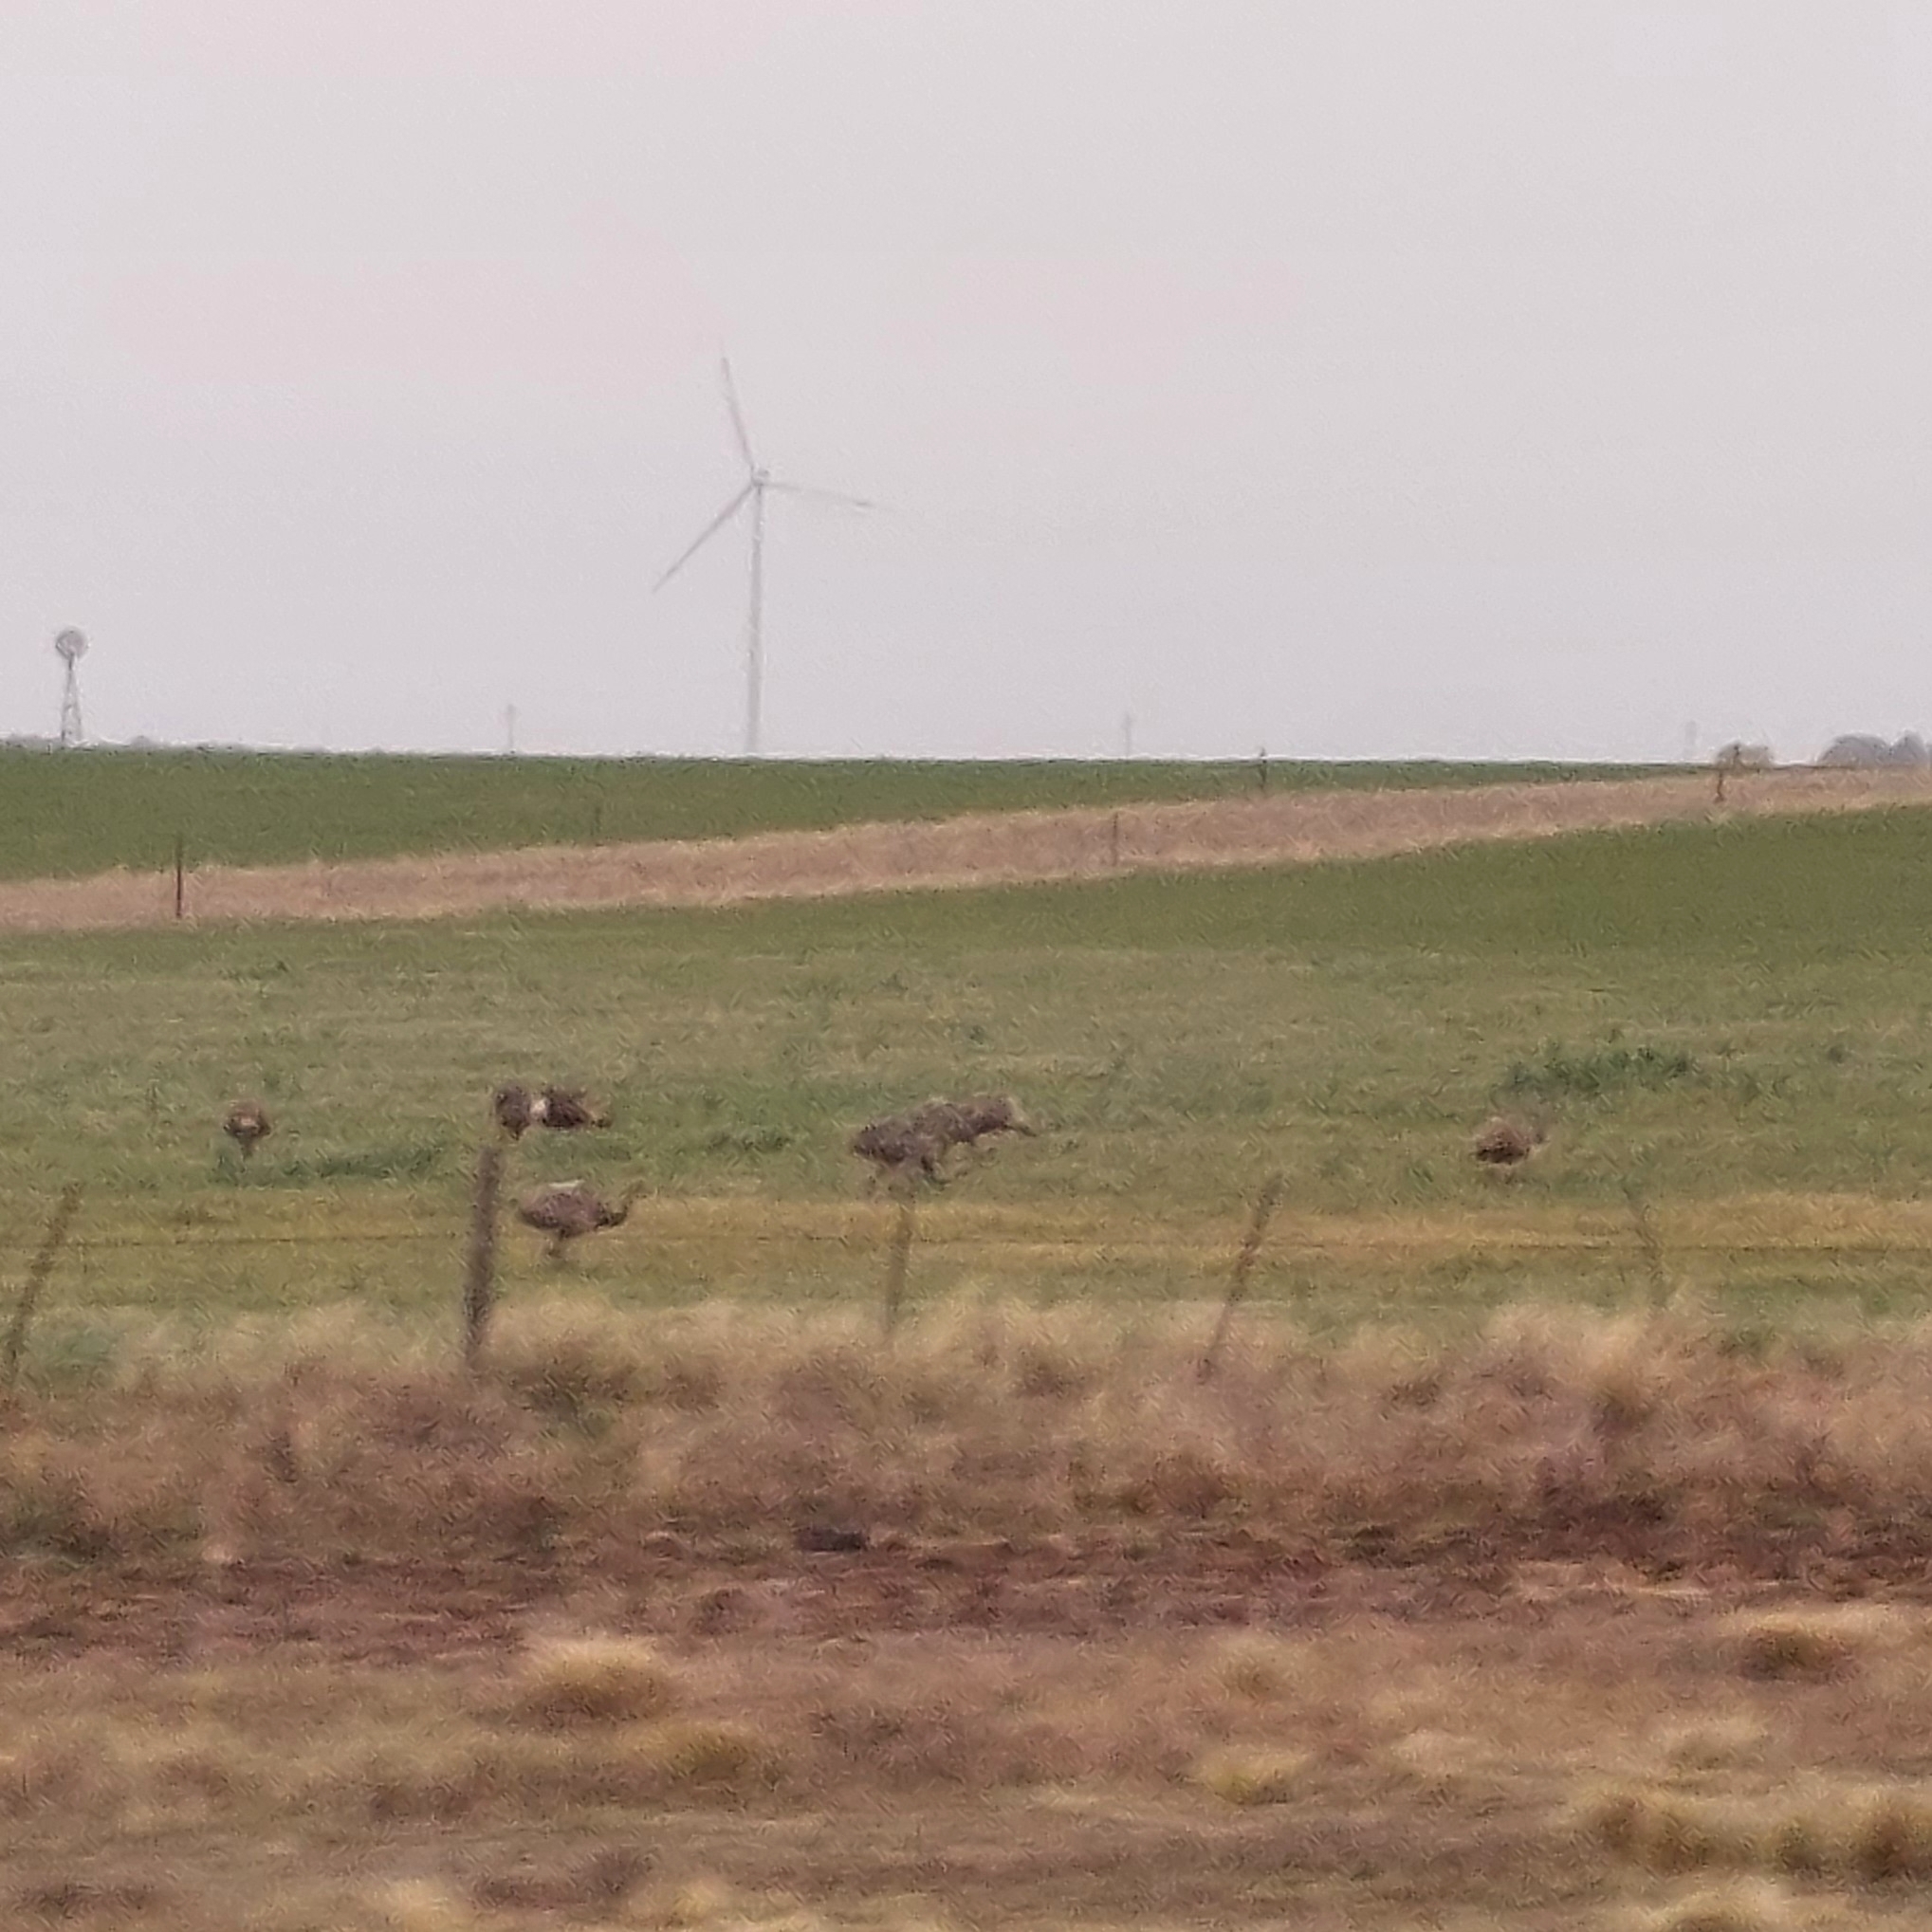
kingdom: Animalia
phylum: Chordata
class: Aves
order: Rheiformes
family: Rheidae
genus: Rhea
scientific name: Rhea americana
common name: Greater rhea
